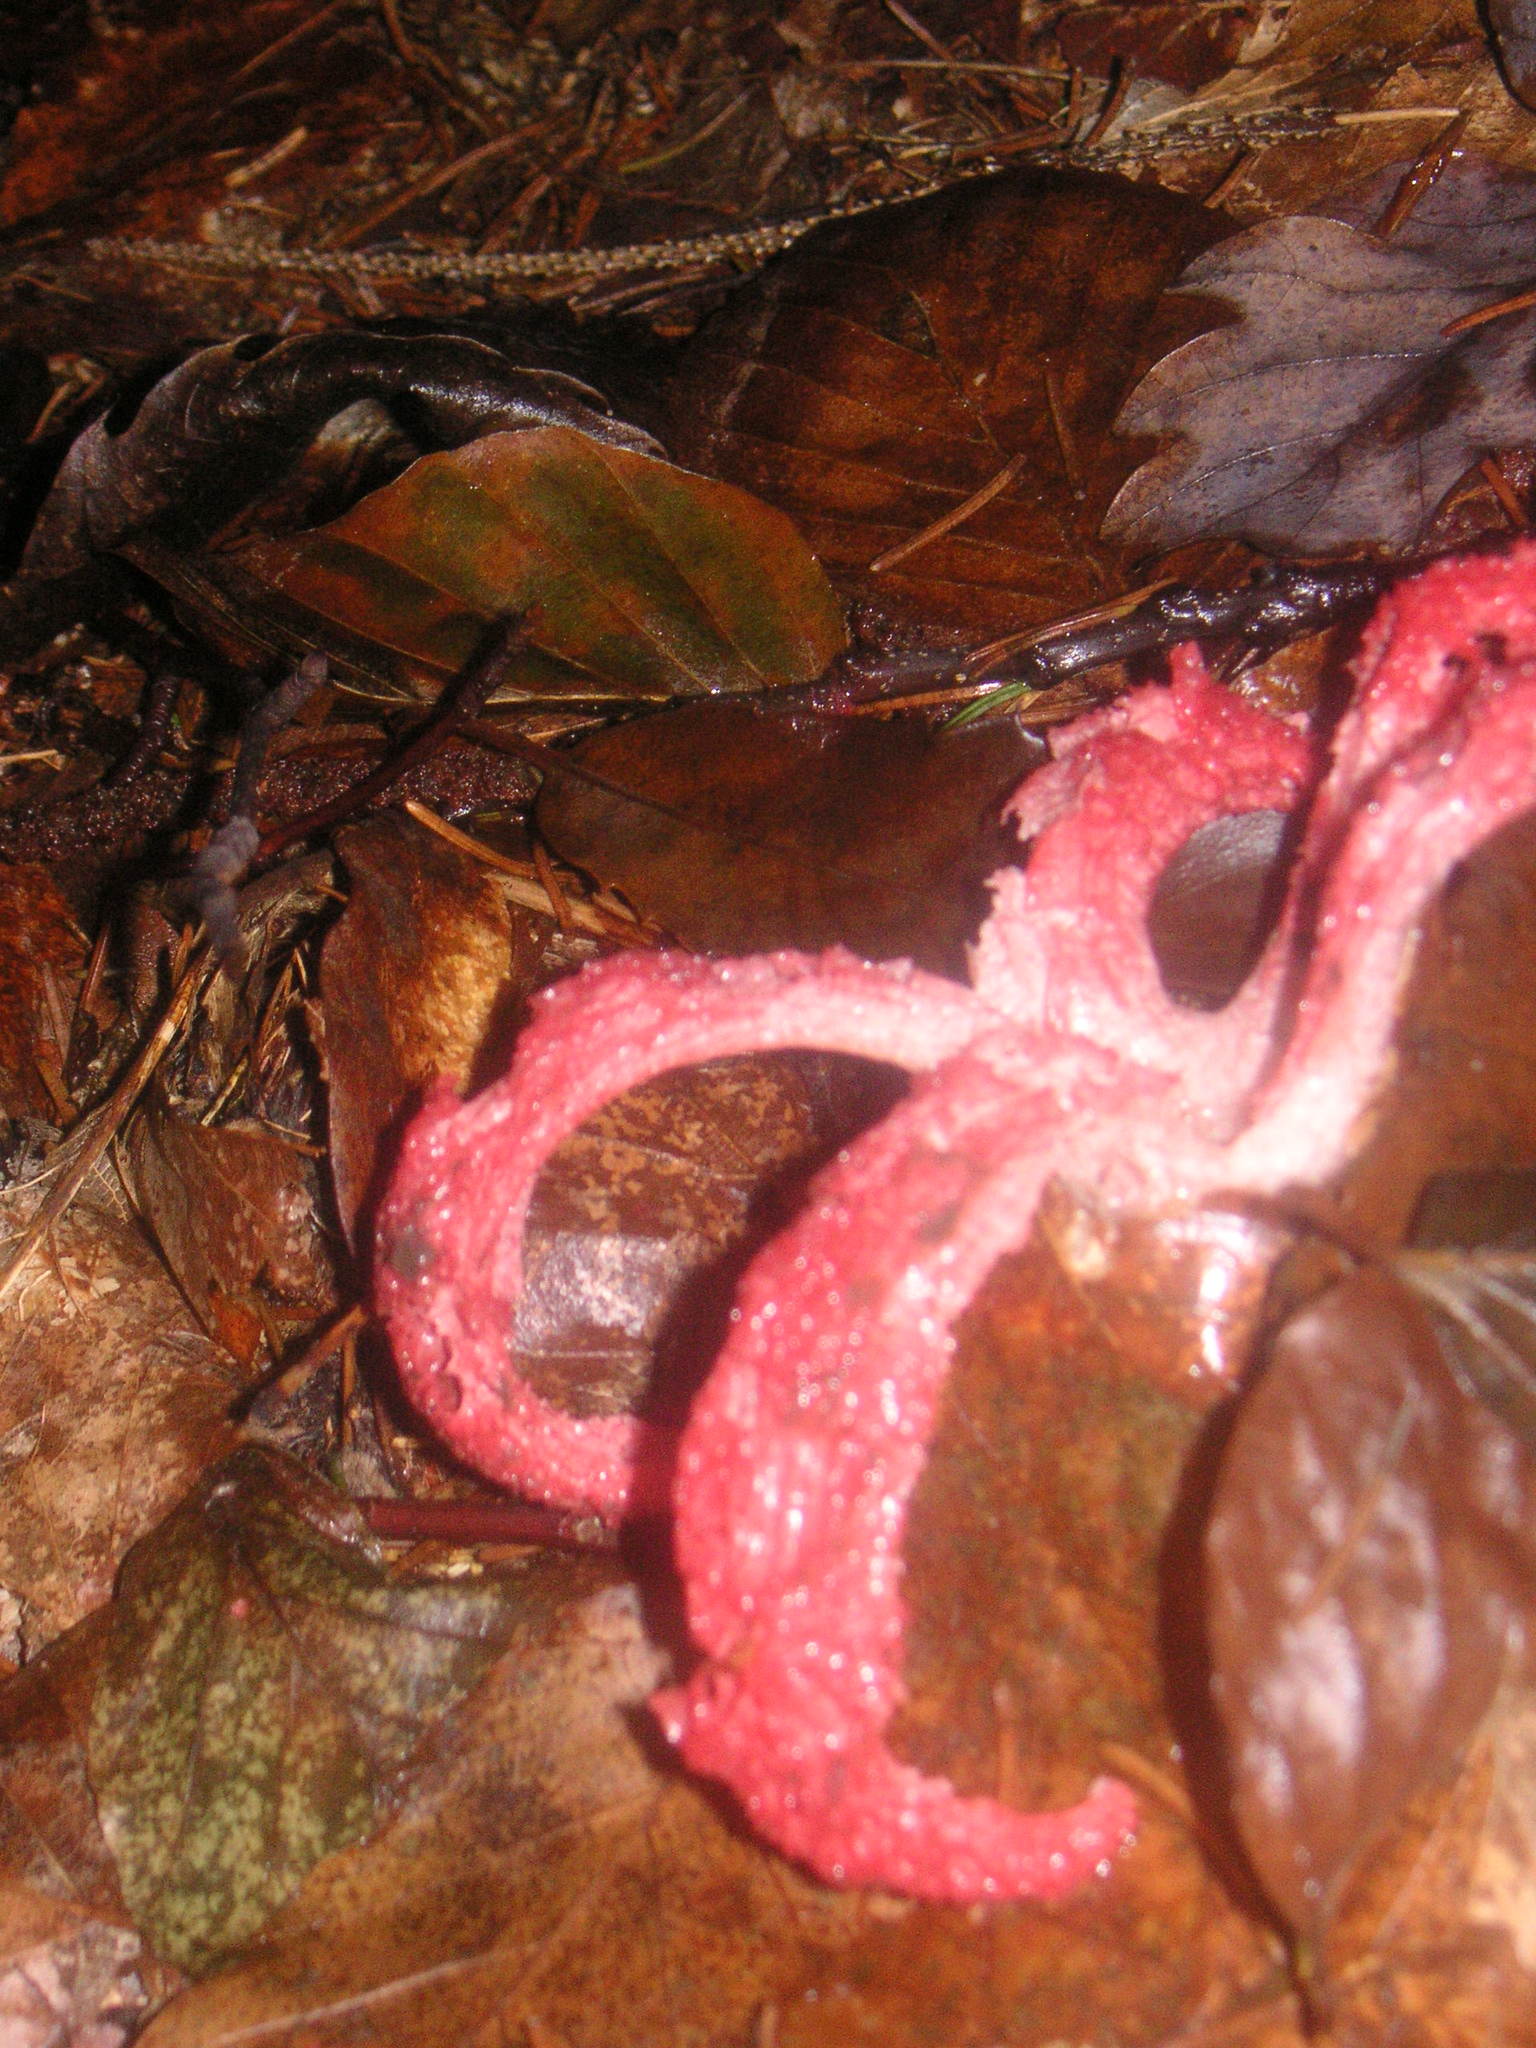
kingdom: Fungi
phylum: Basidiomycota
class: Agaricomycetes
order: Phallales
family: Phallaceae
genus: Clathrus
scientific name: Clathrus archeri
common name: Devil's fingers
